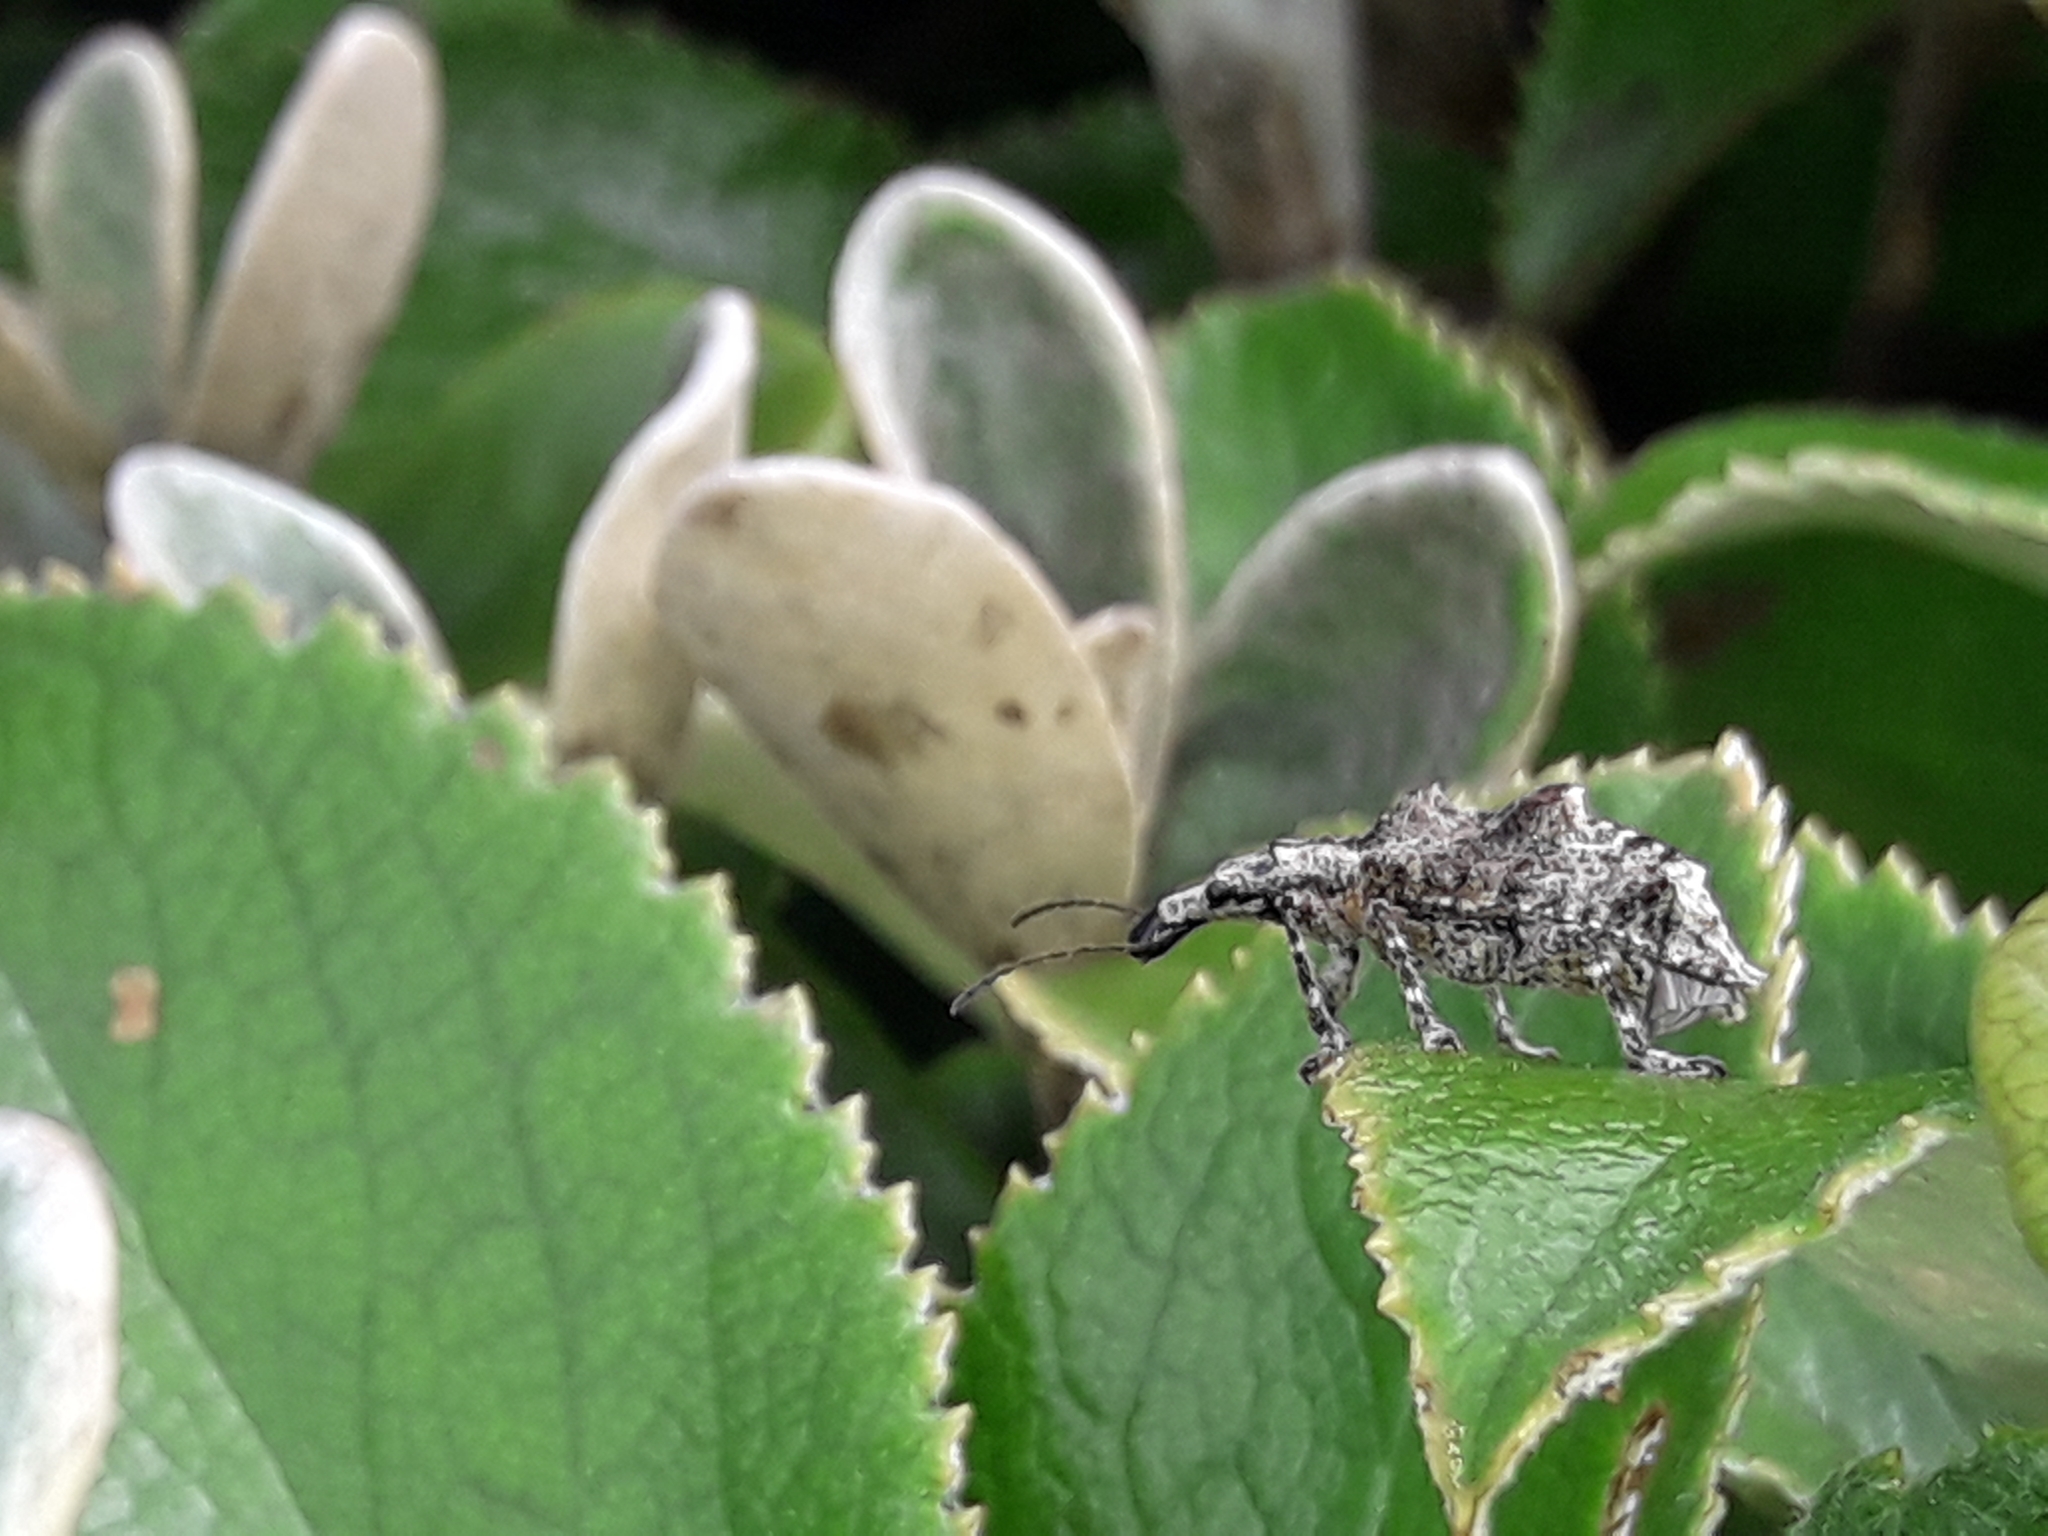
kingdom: Animalia
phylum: Arthropoda
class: Insecta
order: Coleoptera
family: Belidae
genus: Agathinus
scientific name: Agathinus tridens
